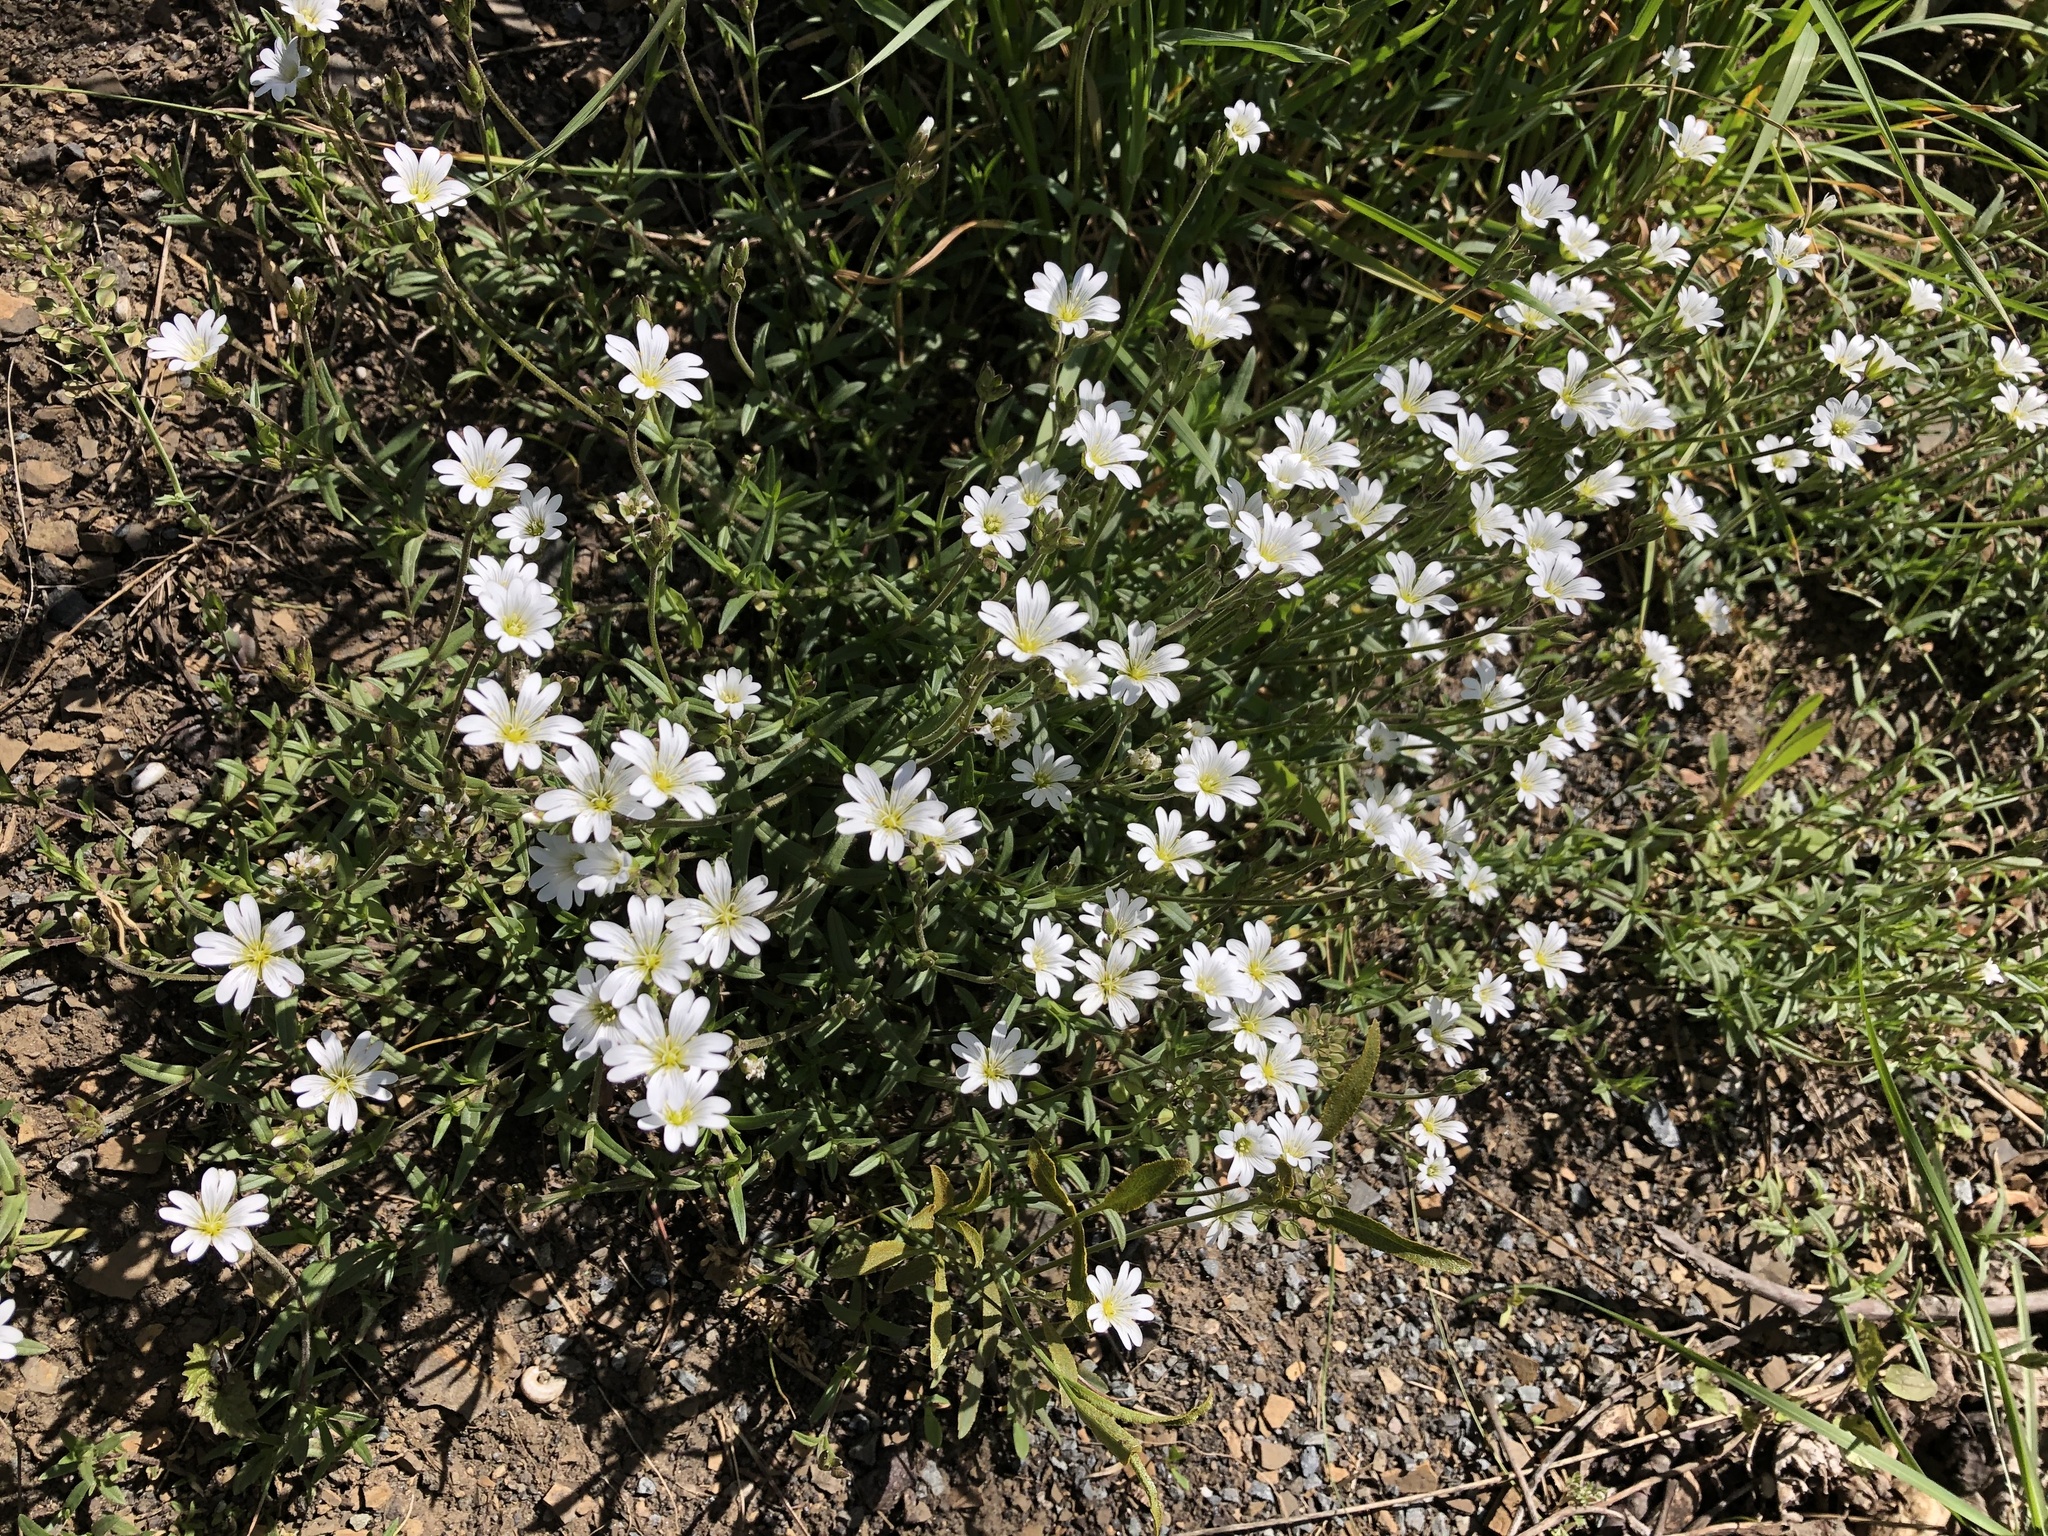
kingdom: Plantae
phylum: Tracheophyta
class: Magnoliopsida
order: Caryophyllales
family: Caryophyllaceae
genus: Cerastium
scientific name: Cerastium arvense
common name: Field mouse-ear
